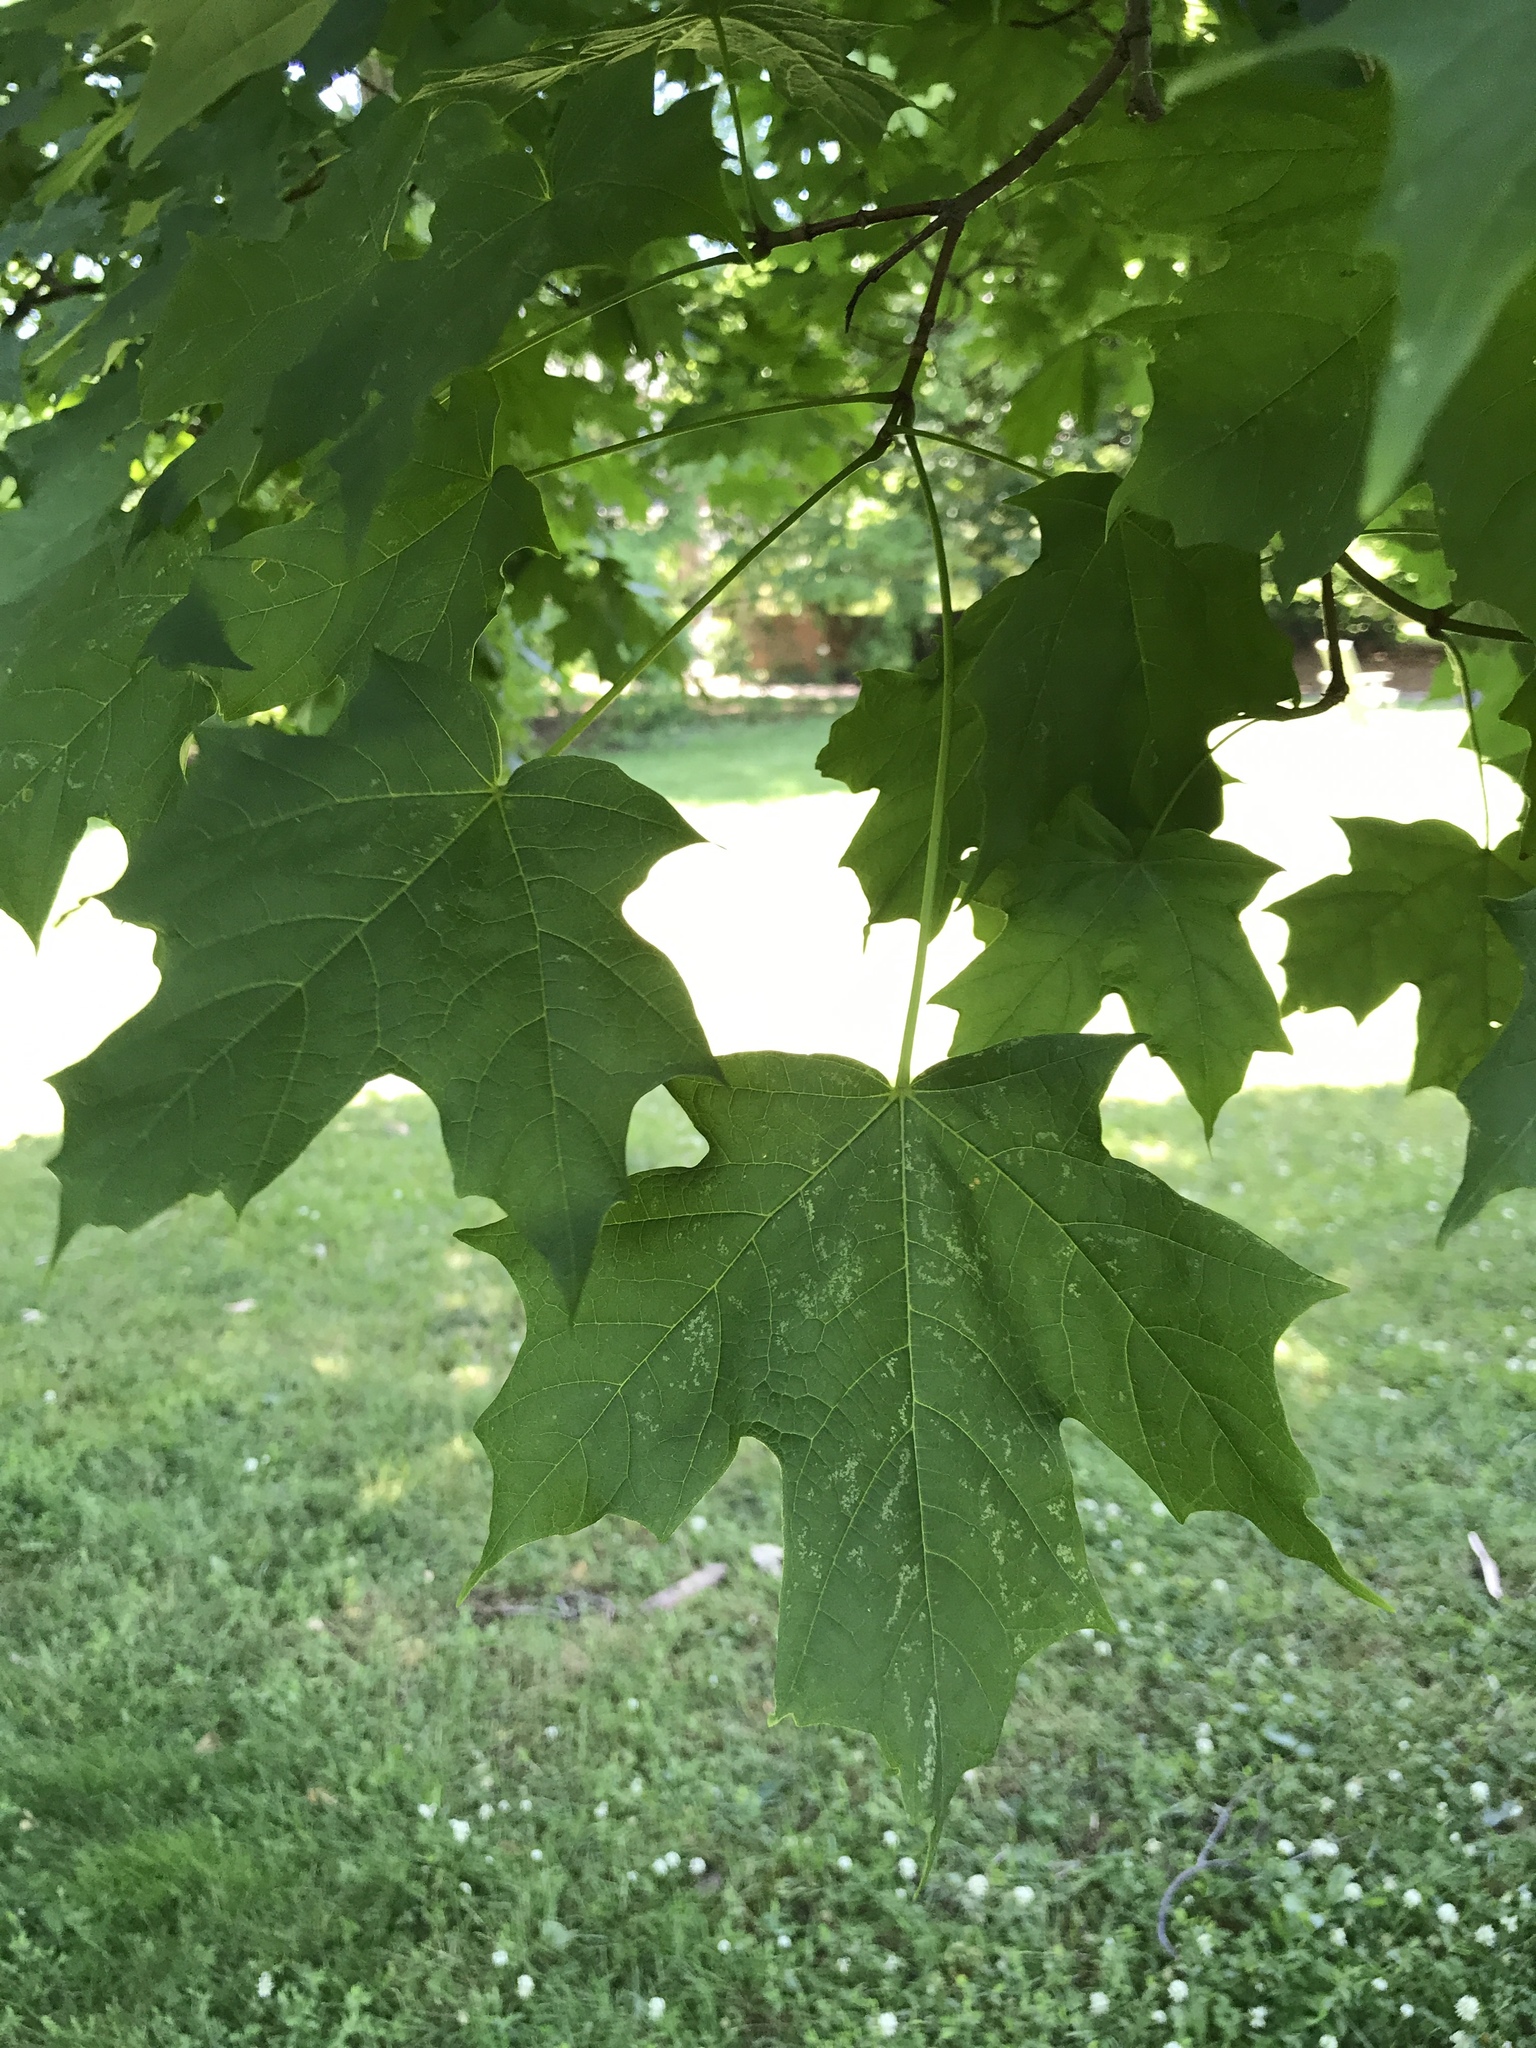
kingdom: Plantae
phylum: Tracheophyta
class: Magnoliopsida
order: Sapindales
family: Sapindaceae
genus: Acer
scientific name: Acer saccharum
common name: Sugar maple
